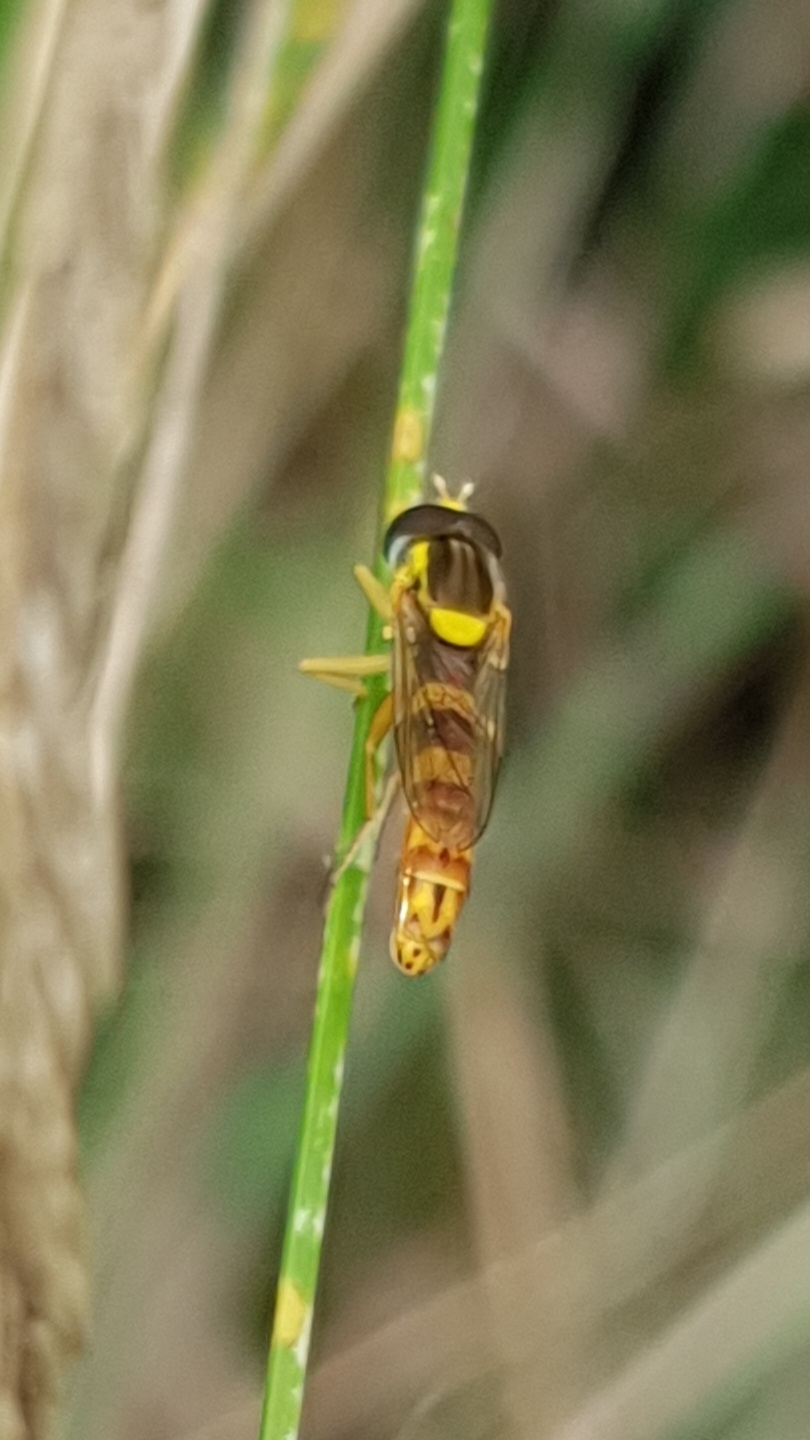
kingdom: Animalia
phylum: Arthropoda
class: Insecta
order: Diptera
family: Syrphidae
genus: Sphaerophoria
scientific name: Sphaerophoria scripta
